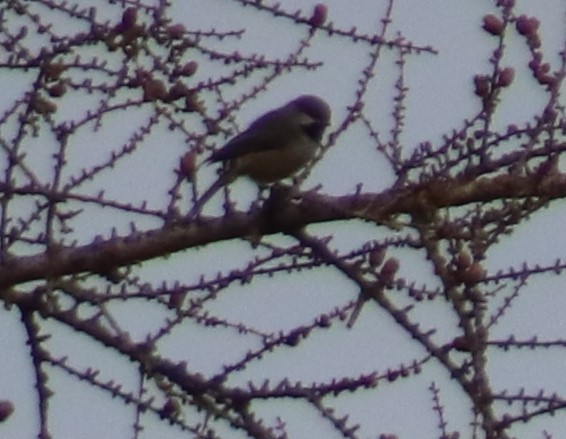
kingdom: Animalia
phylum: Chordata
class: Aves
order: Passeriformes
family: Paridae
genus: Poecile
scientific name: Poecile hudsonicus
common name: Boreal chickadee
